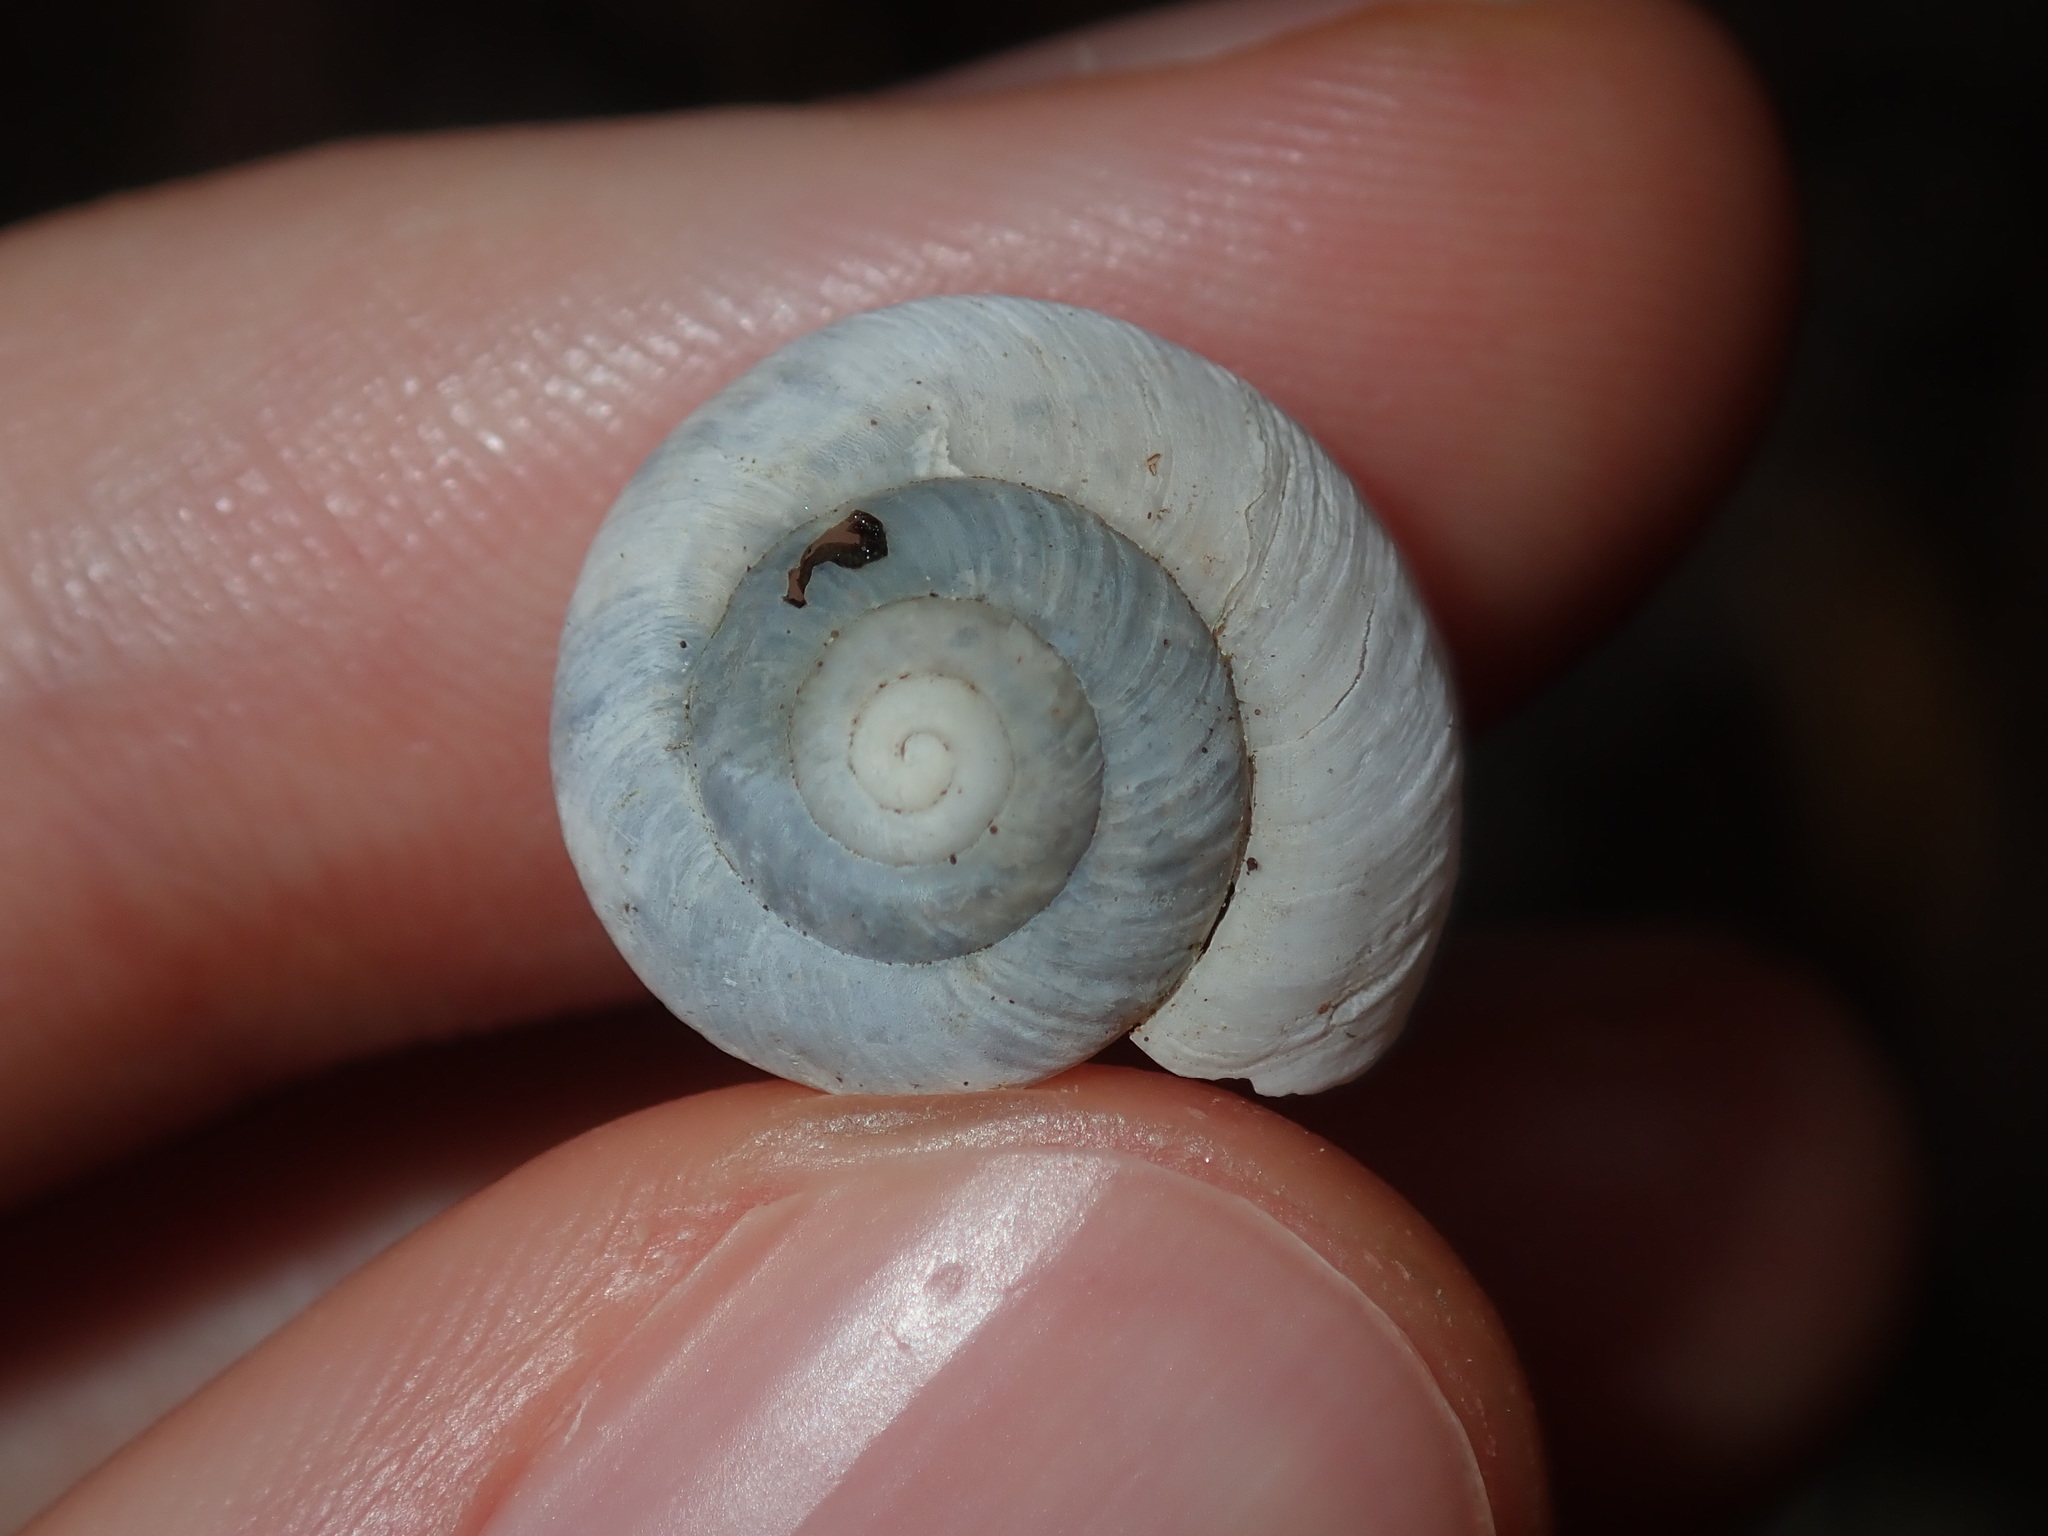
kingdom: Animalia
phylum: Mollusca
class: Gastropoda
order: Stylommatophora
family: Camaenidae
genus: Sauroconcha
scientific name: Sauroconcha sheai
